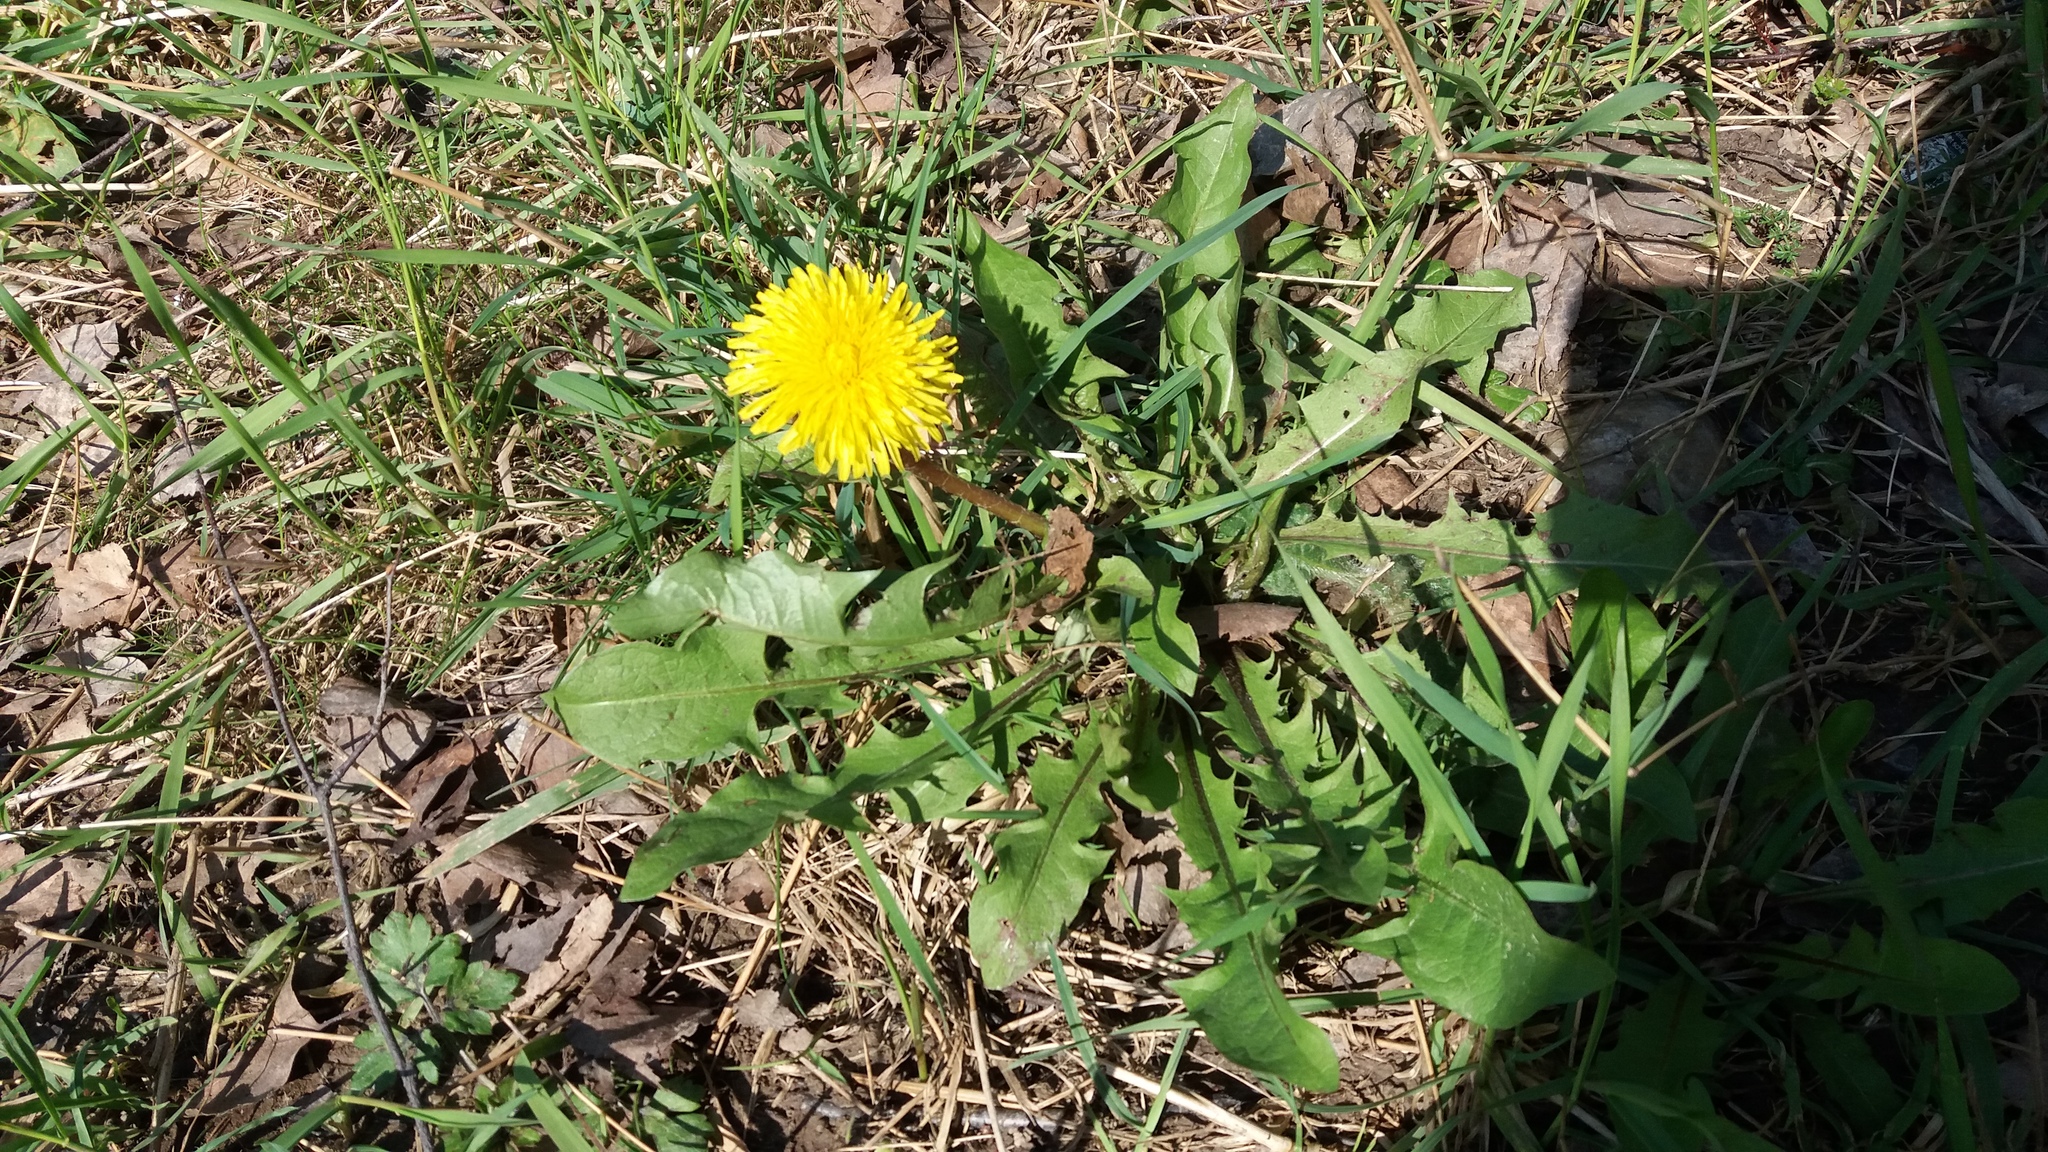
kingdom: Plantae
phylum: Tracheophyta
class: Magnoliopsida
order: Asterales
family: Asteraceae
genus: Taraxacum
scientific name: Taraxacum officinale
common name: Common dandelion
